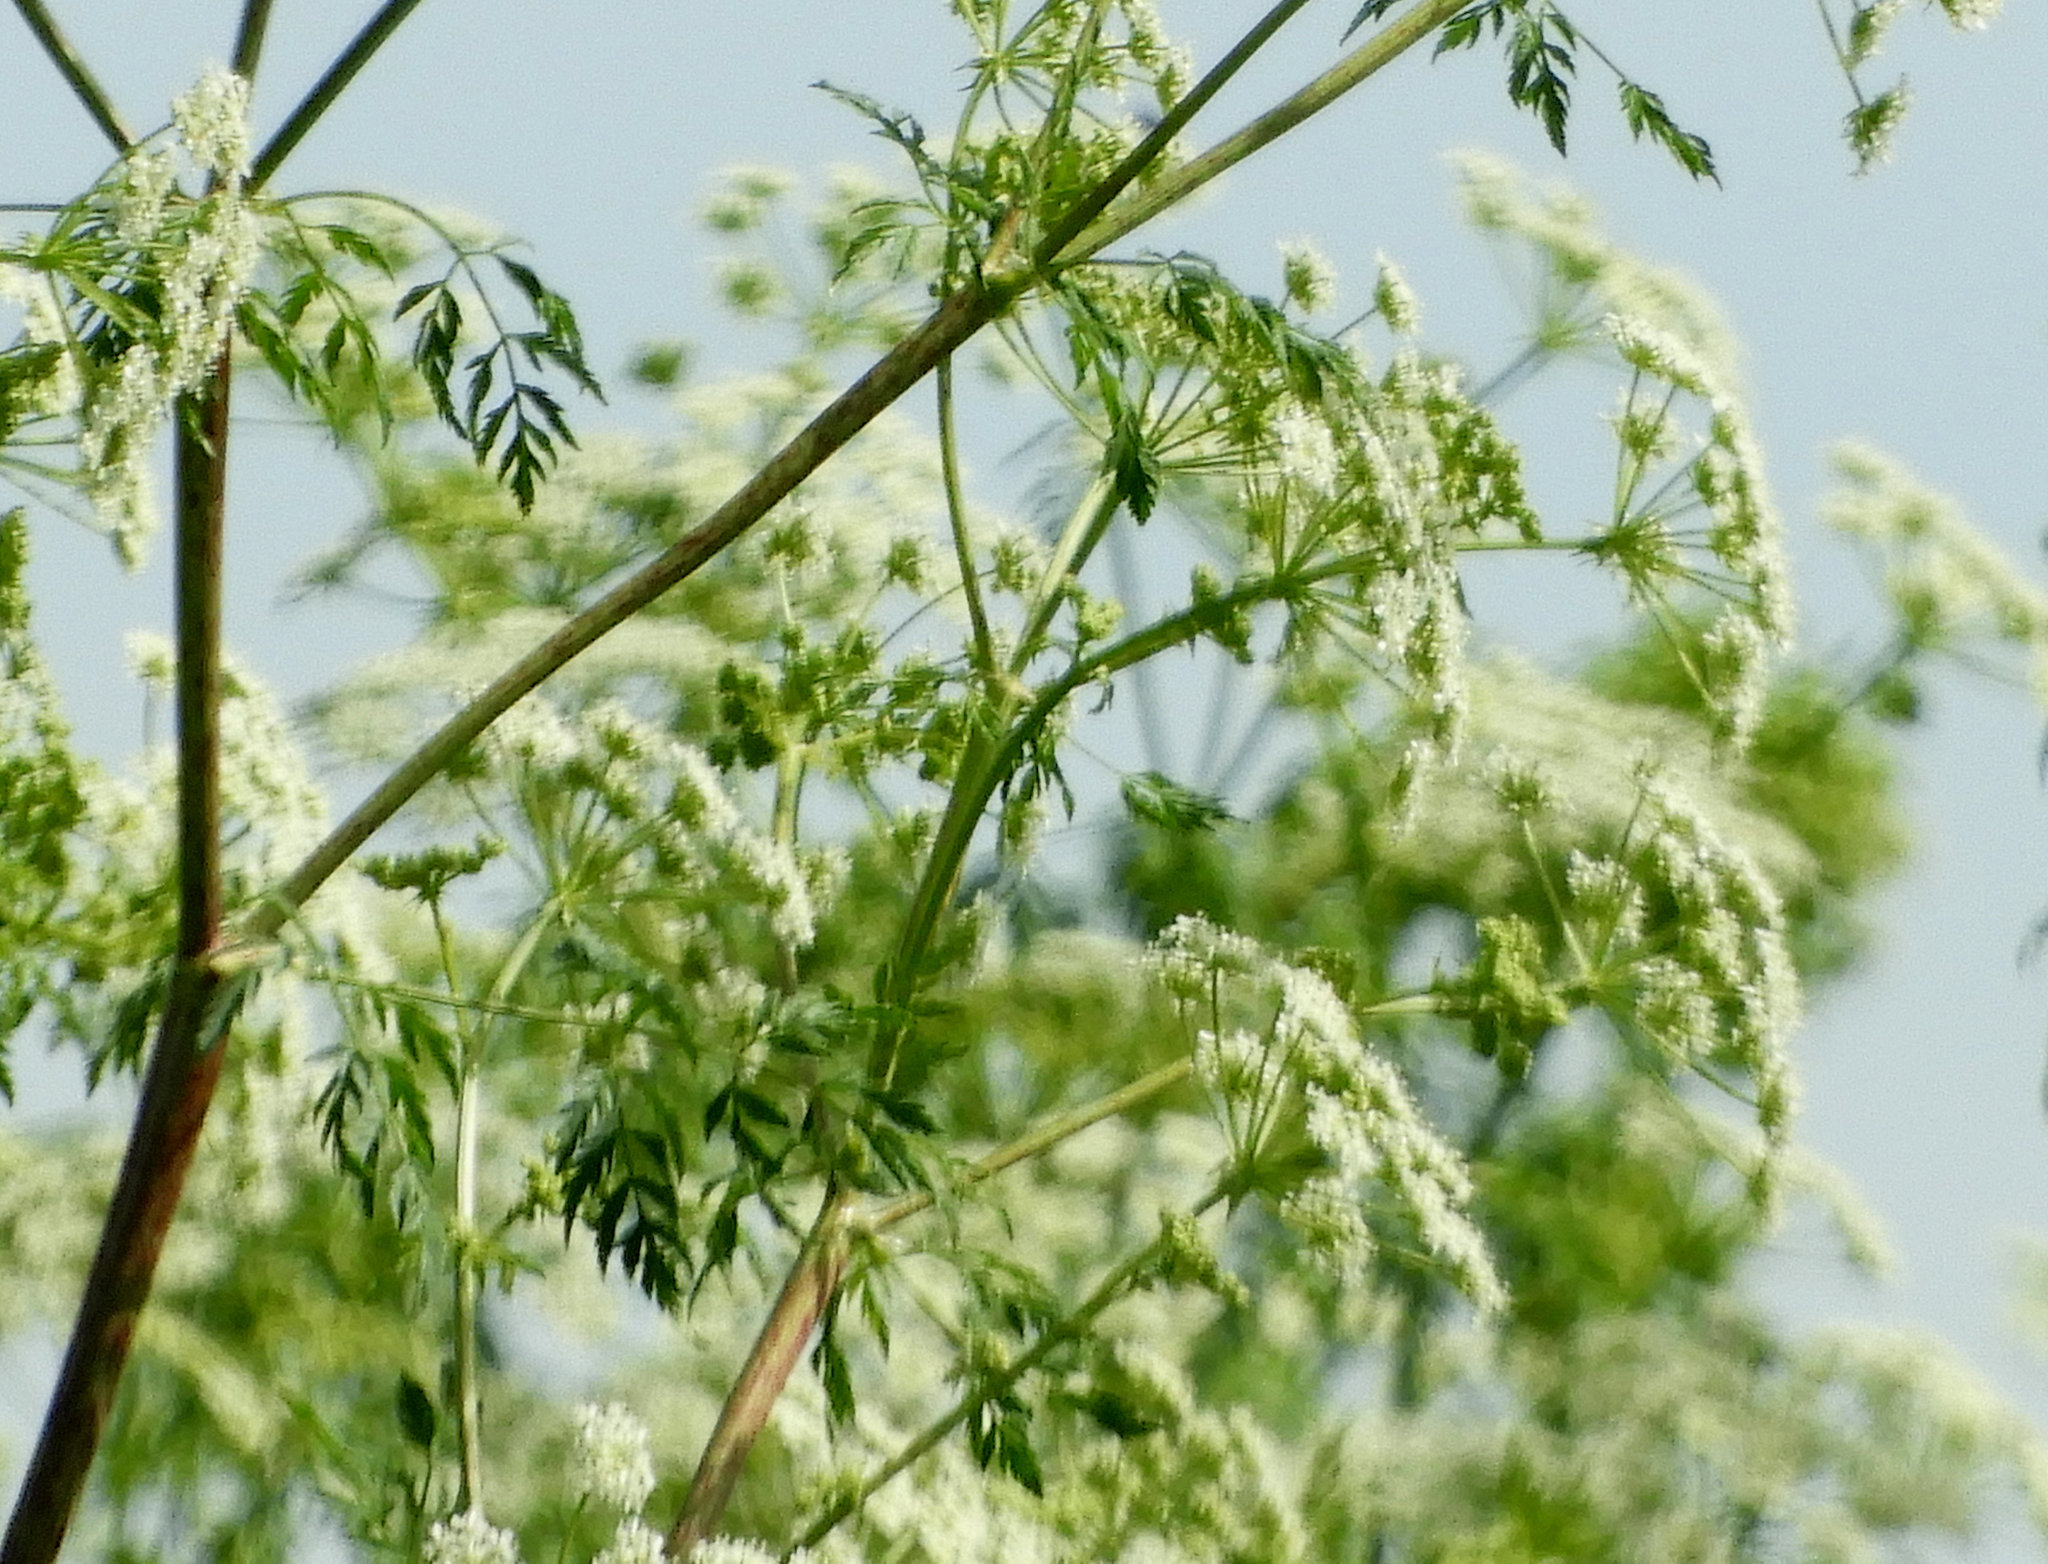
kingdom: Plantae
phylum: Tracheophyta
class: Magnoliopsida
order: Apiales
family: Apiaceae
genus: Conium
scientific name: Conium maculatum
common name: Hemlock
